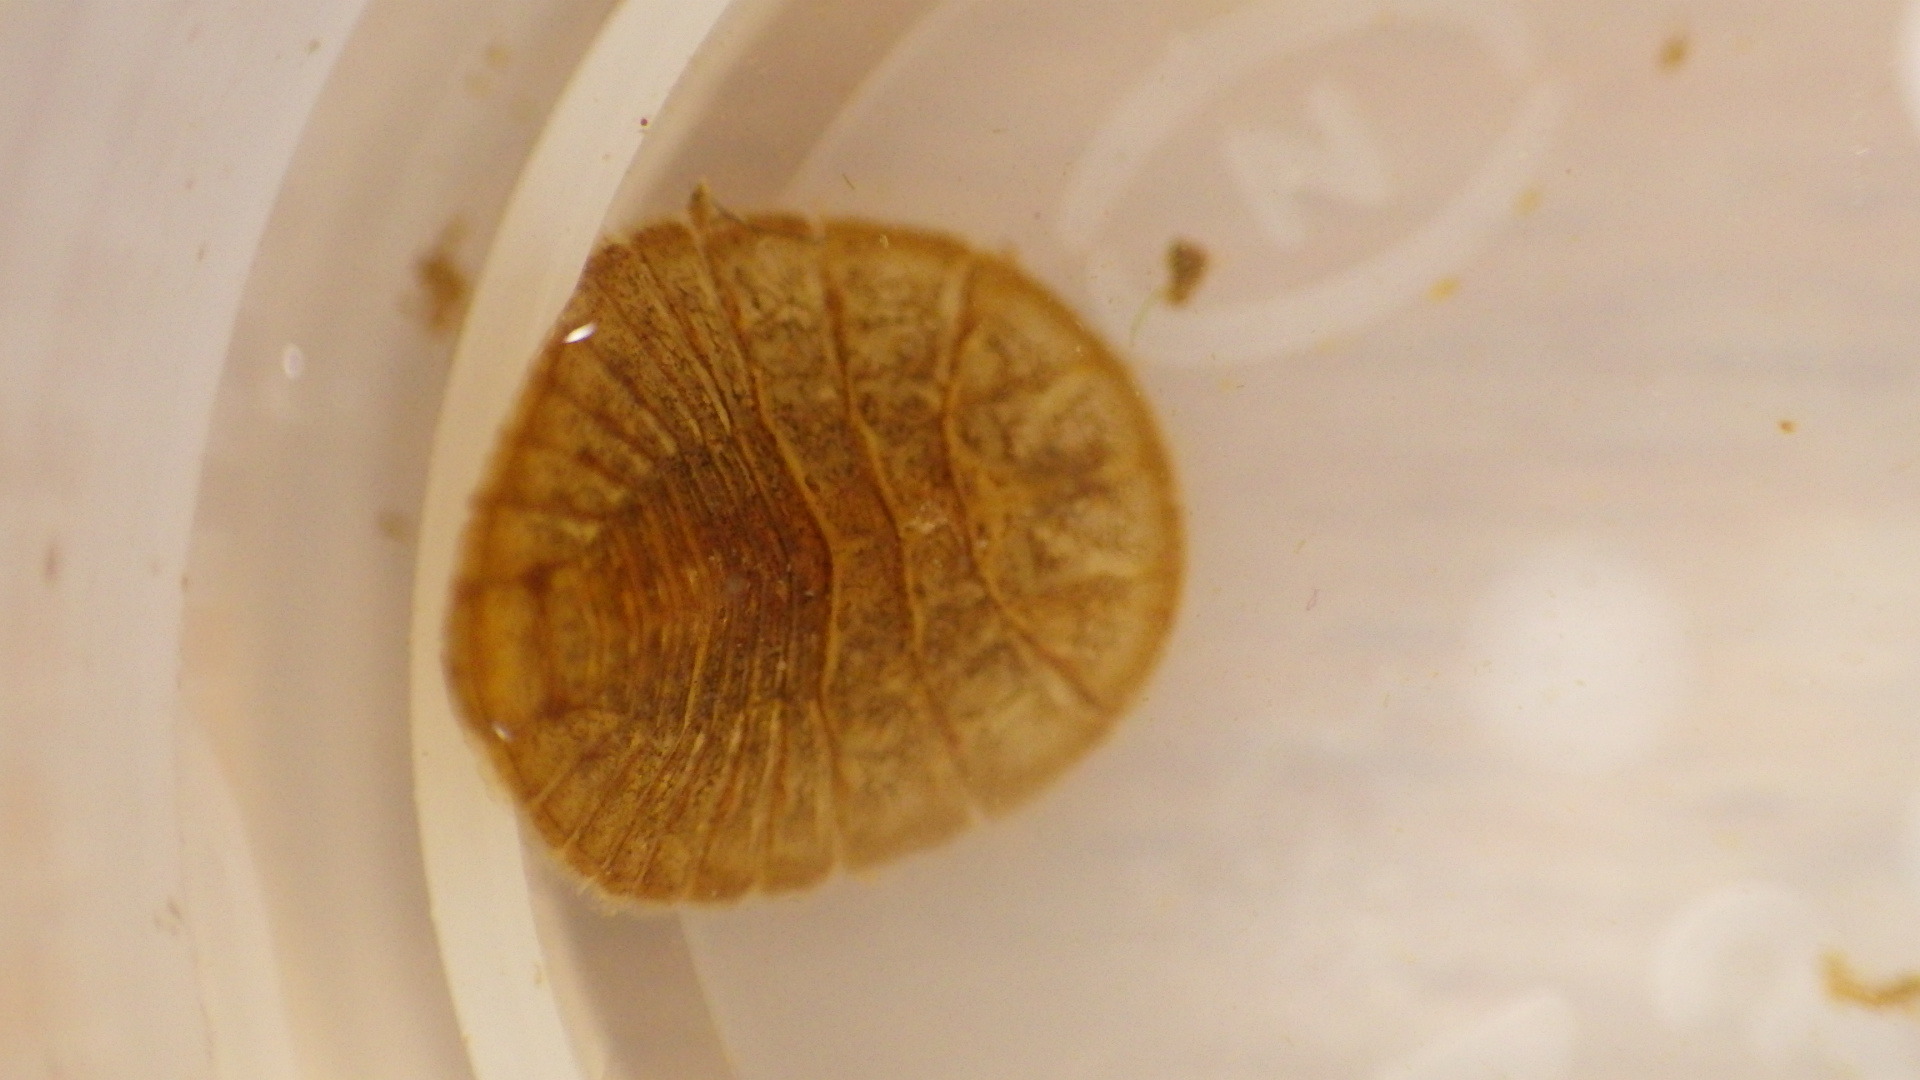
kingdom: Animalia
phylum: Arthropoda
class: Insecta
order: Coleoptera
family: Psephenidae
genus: Psephenus
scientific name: Psephenus herricki
